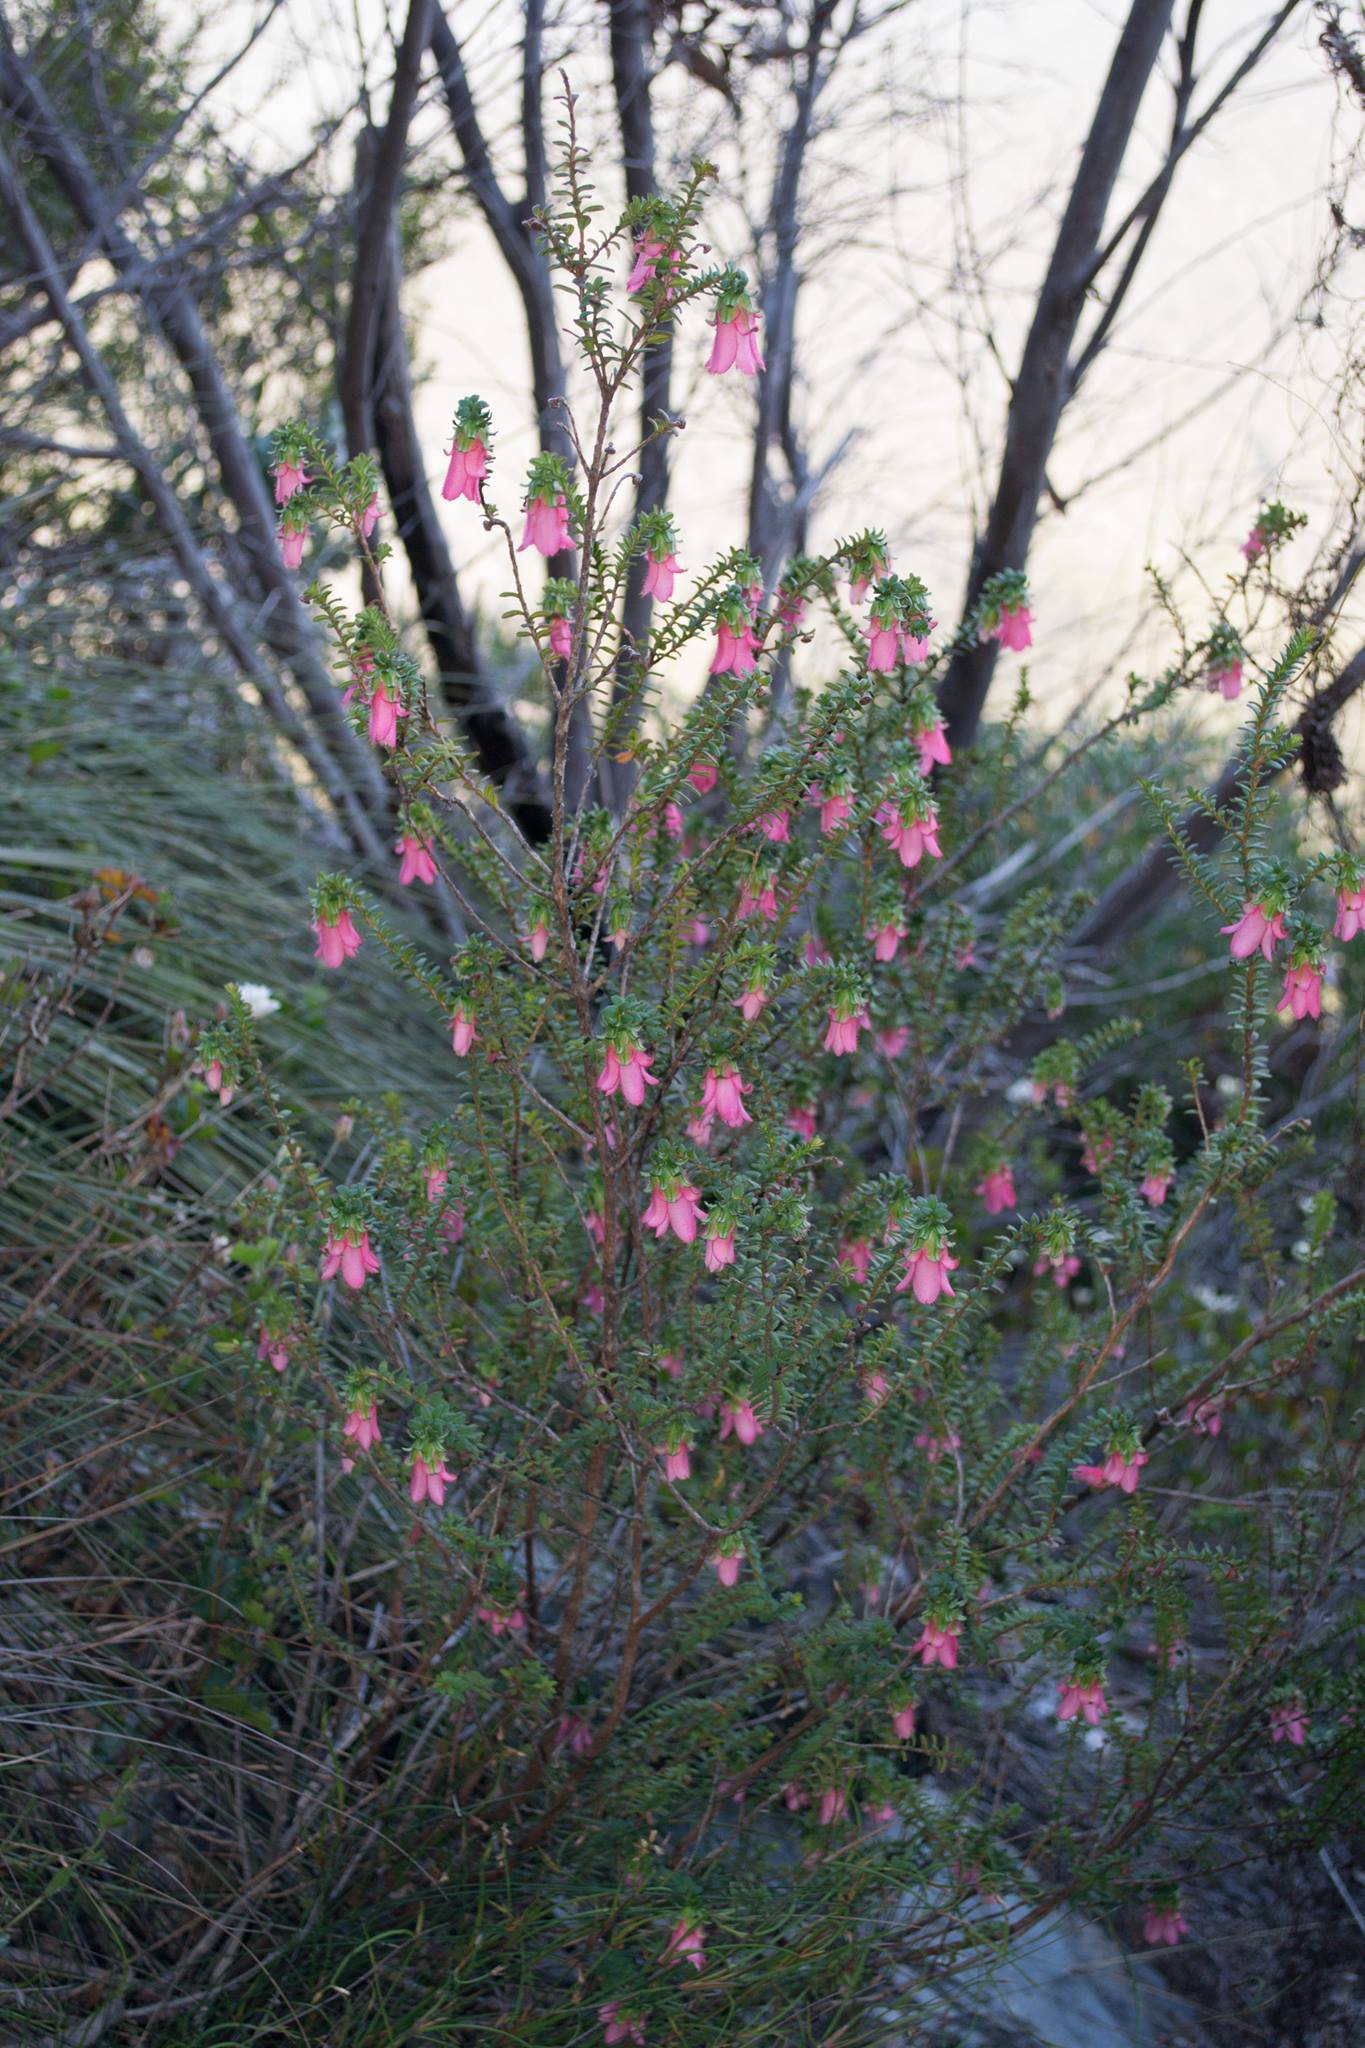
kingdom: Plantae
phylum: Tracheophyta
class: Magnoliopsida
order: Myrtales
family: Myrtaceae
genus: Darwinia
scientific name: Darwinia squarrosa
